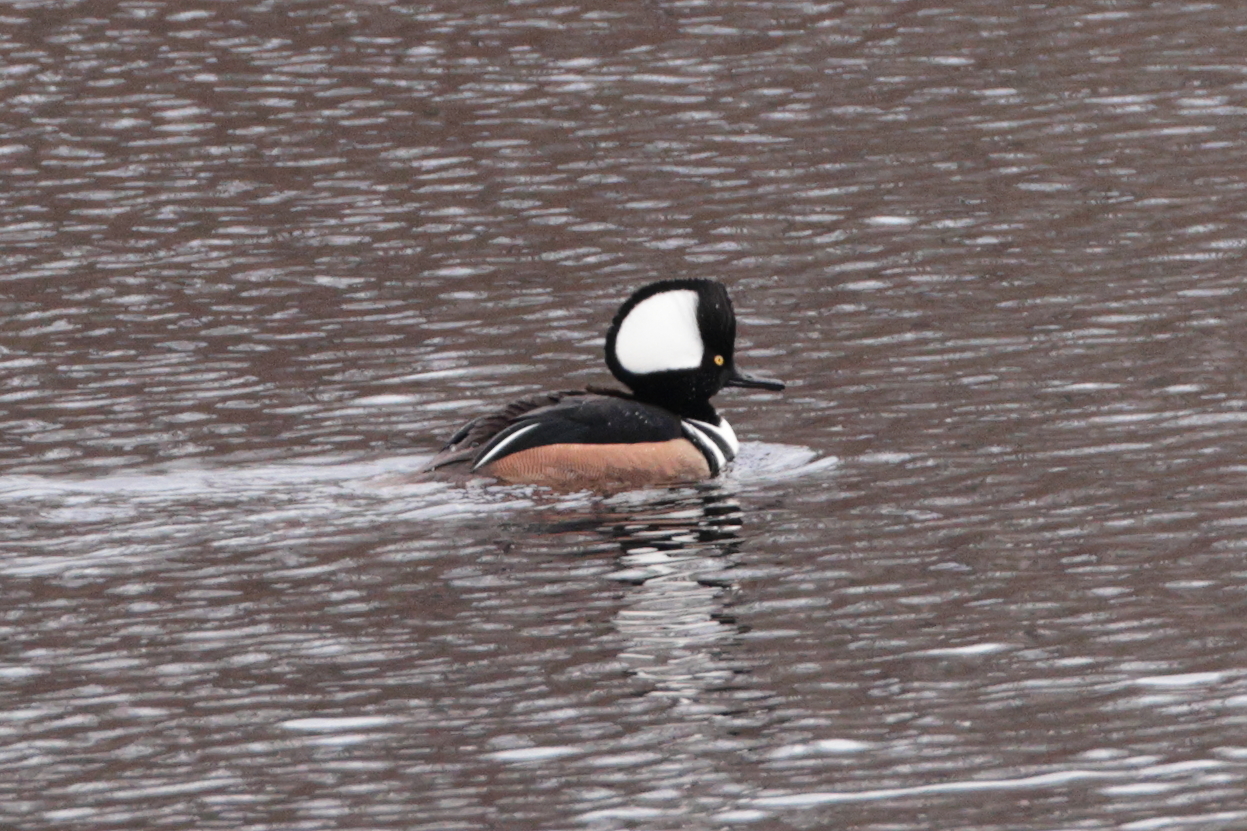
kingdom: Animalia
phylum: Chordata
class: Aves
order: Anseriformes
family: Anatidae
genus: Lophodytes
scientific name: Lophodytes cucullatus
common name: Hooded merganser
